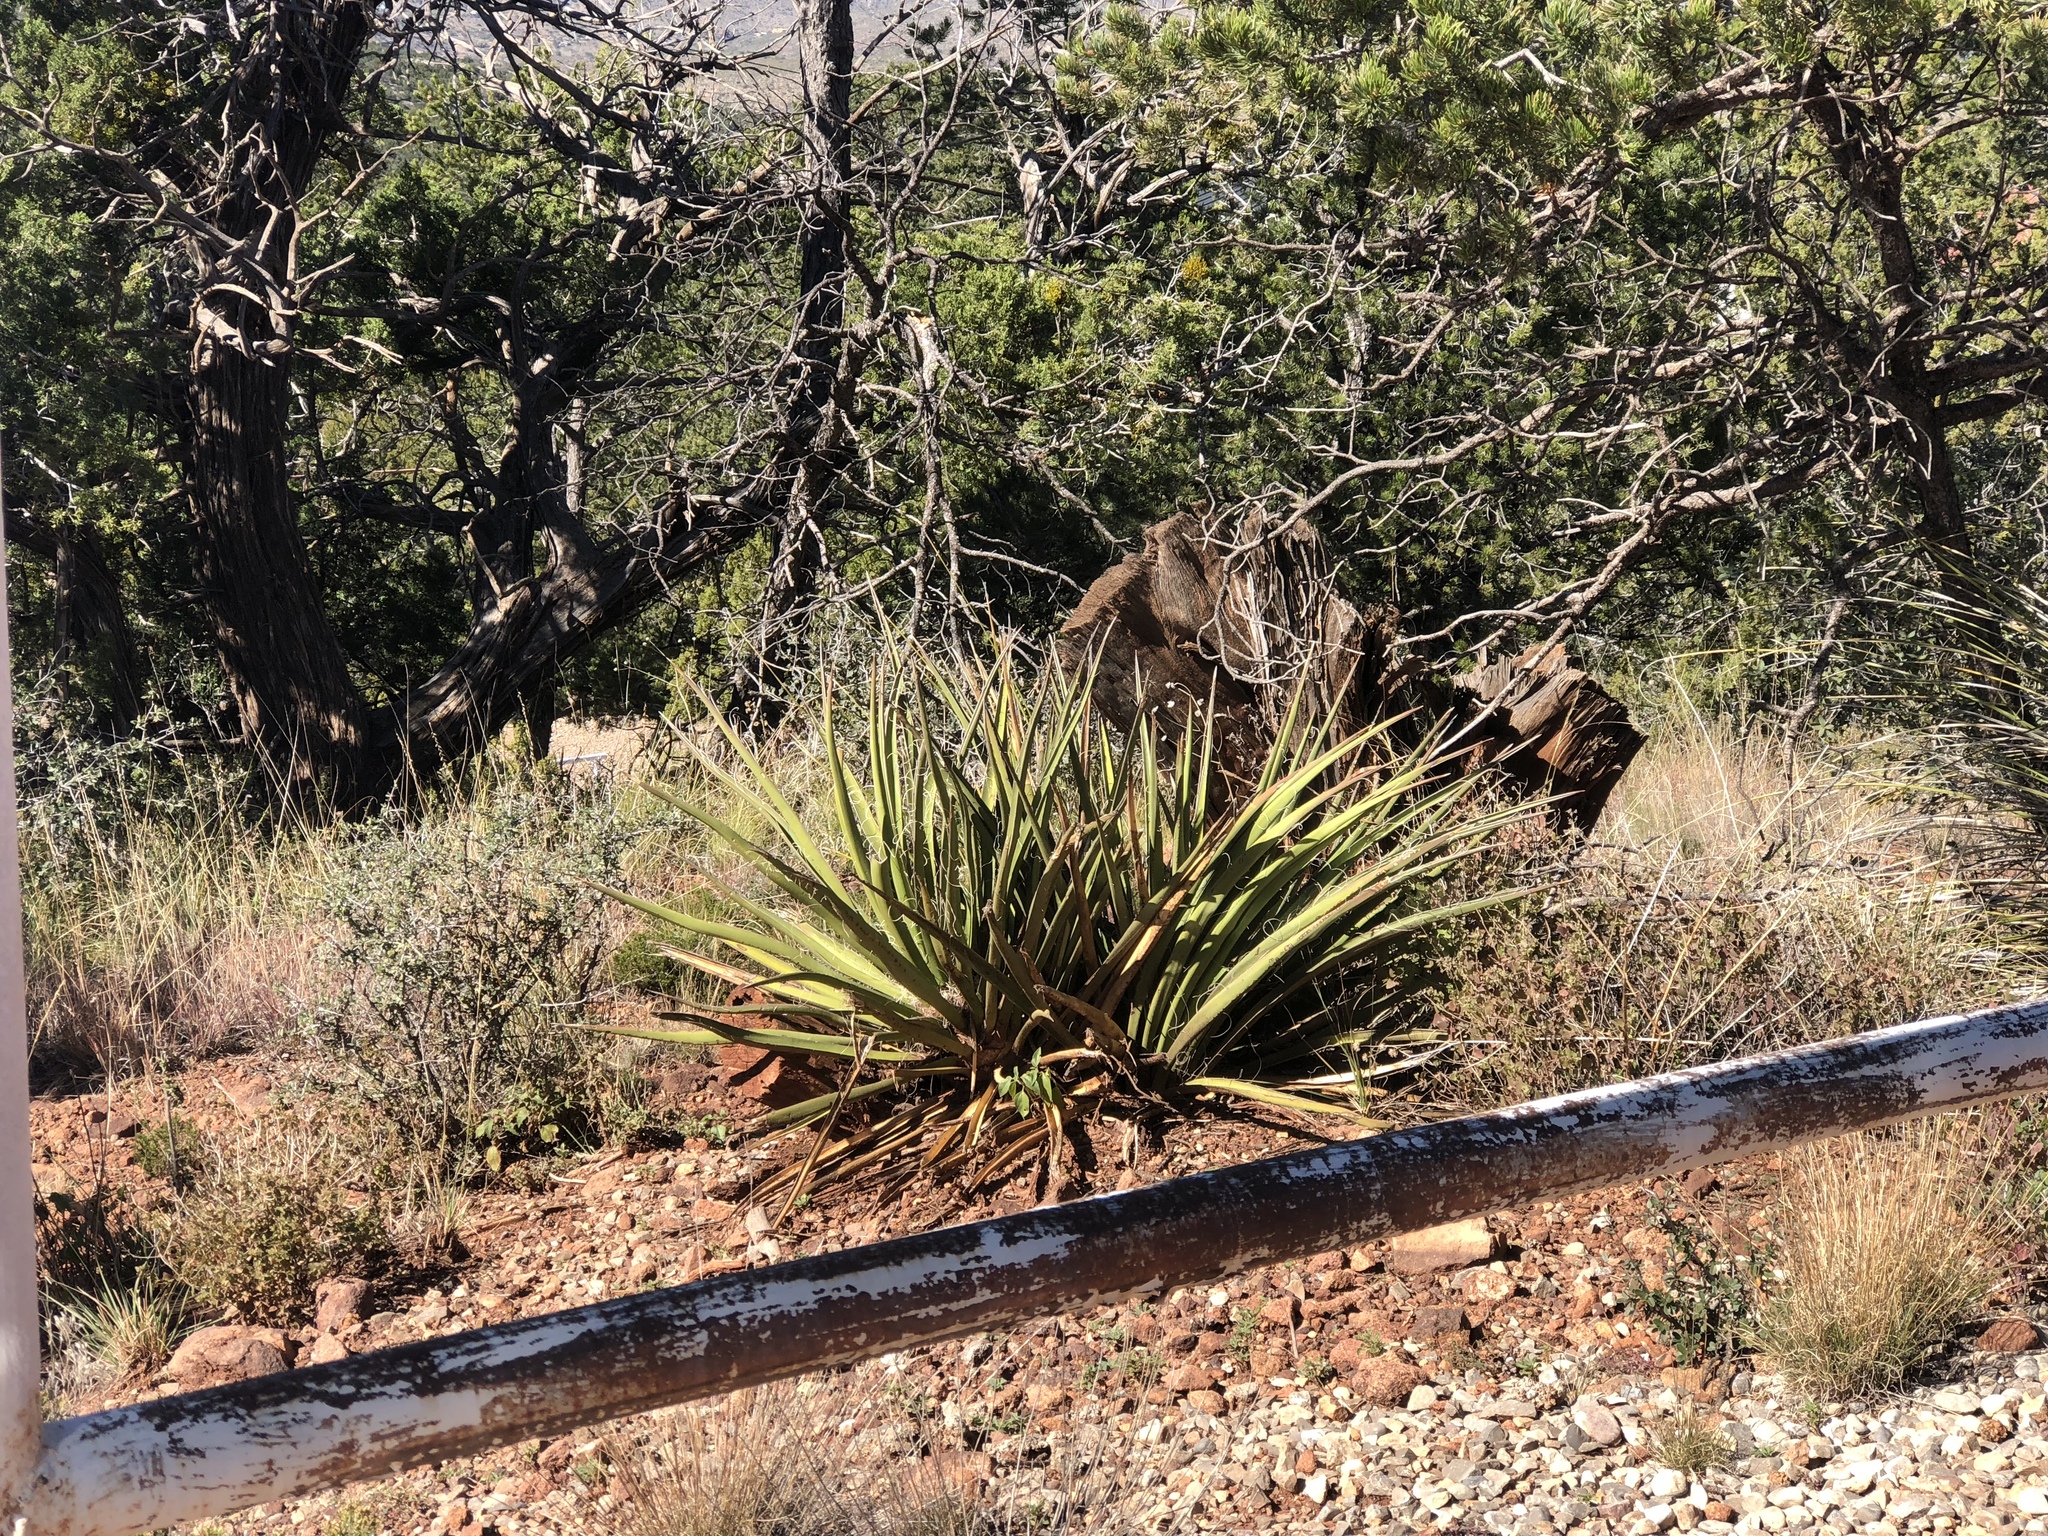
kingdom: Plantae
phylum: Tracheophyta
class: Liliopsida
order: Asparagales
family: Asparagaceae
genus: Yucca
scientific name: Yucca baccata
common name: Banana yucca
